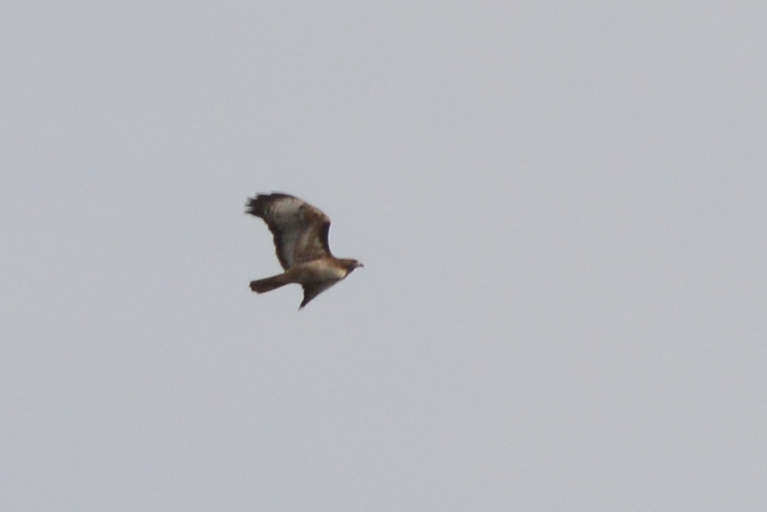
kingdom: Animalia
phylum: Chordata
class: Aves
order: Accipitriformes
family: Accipitridae
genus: Buteo
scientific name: Buteo jamaicensis
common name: Red-tailed hawk
